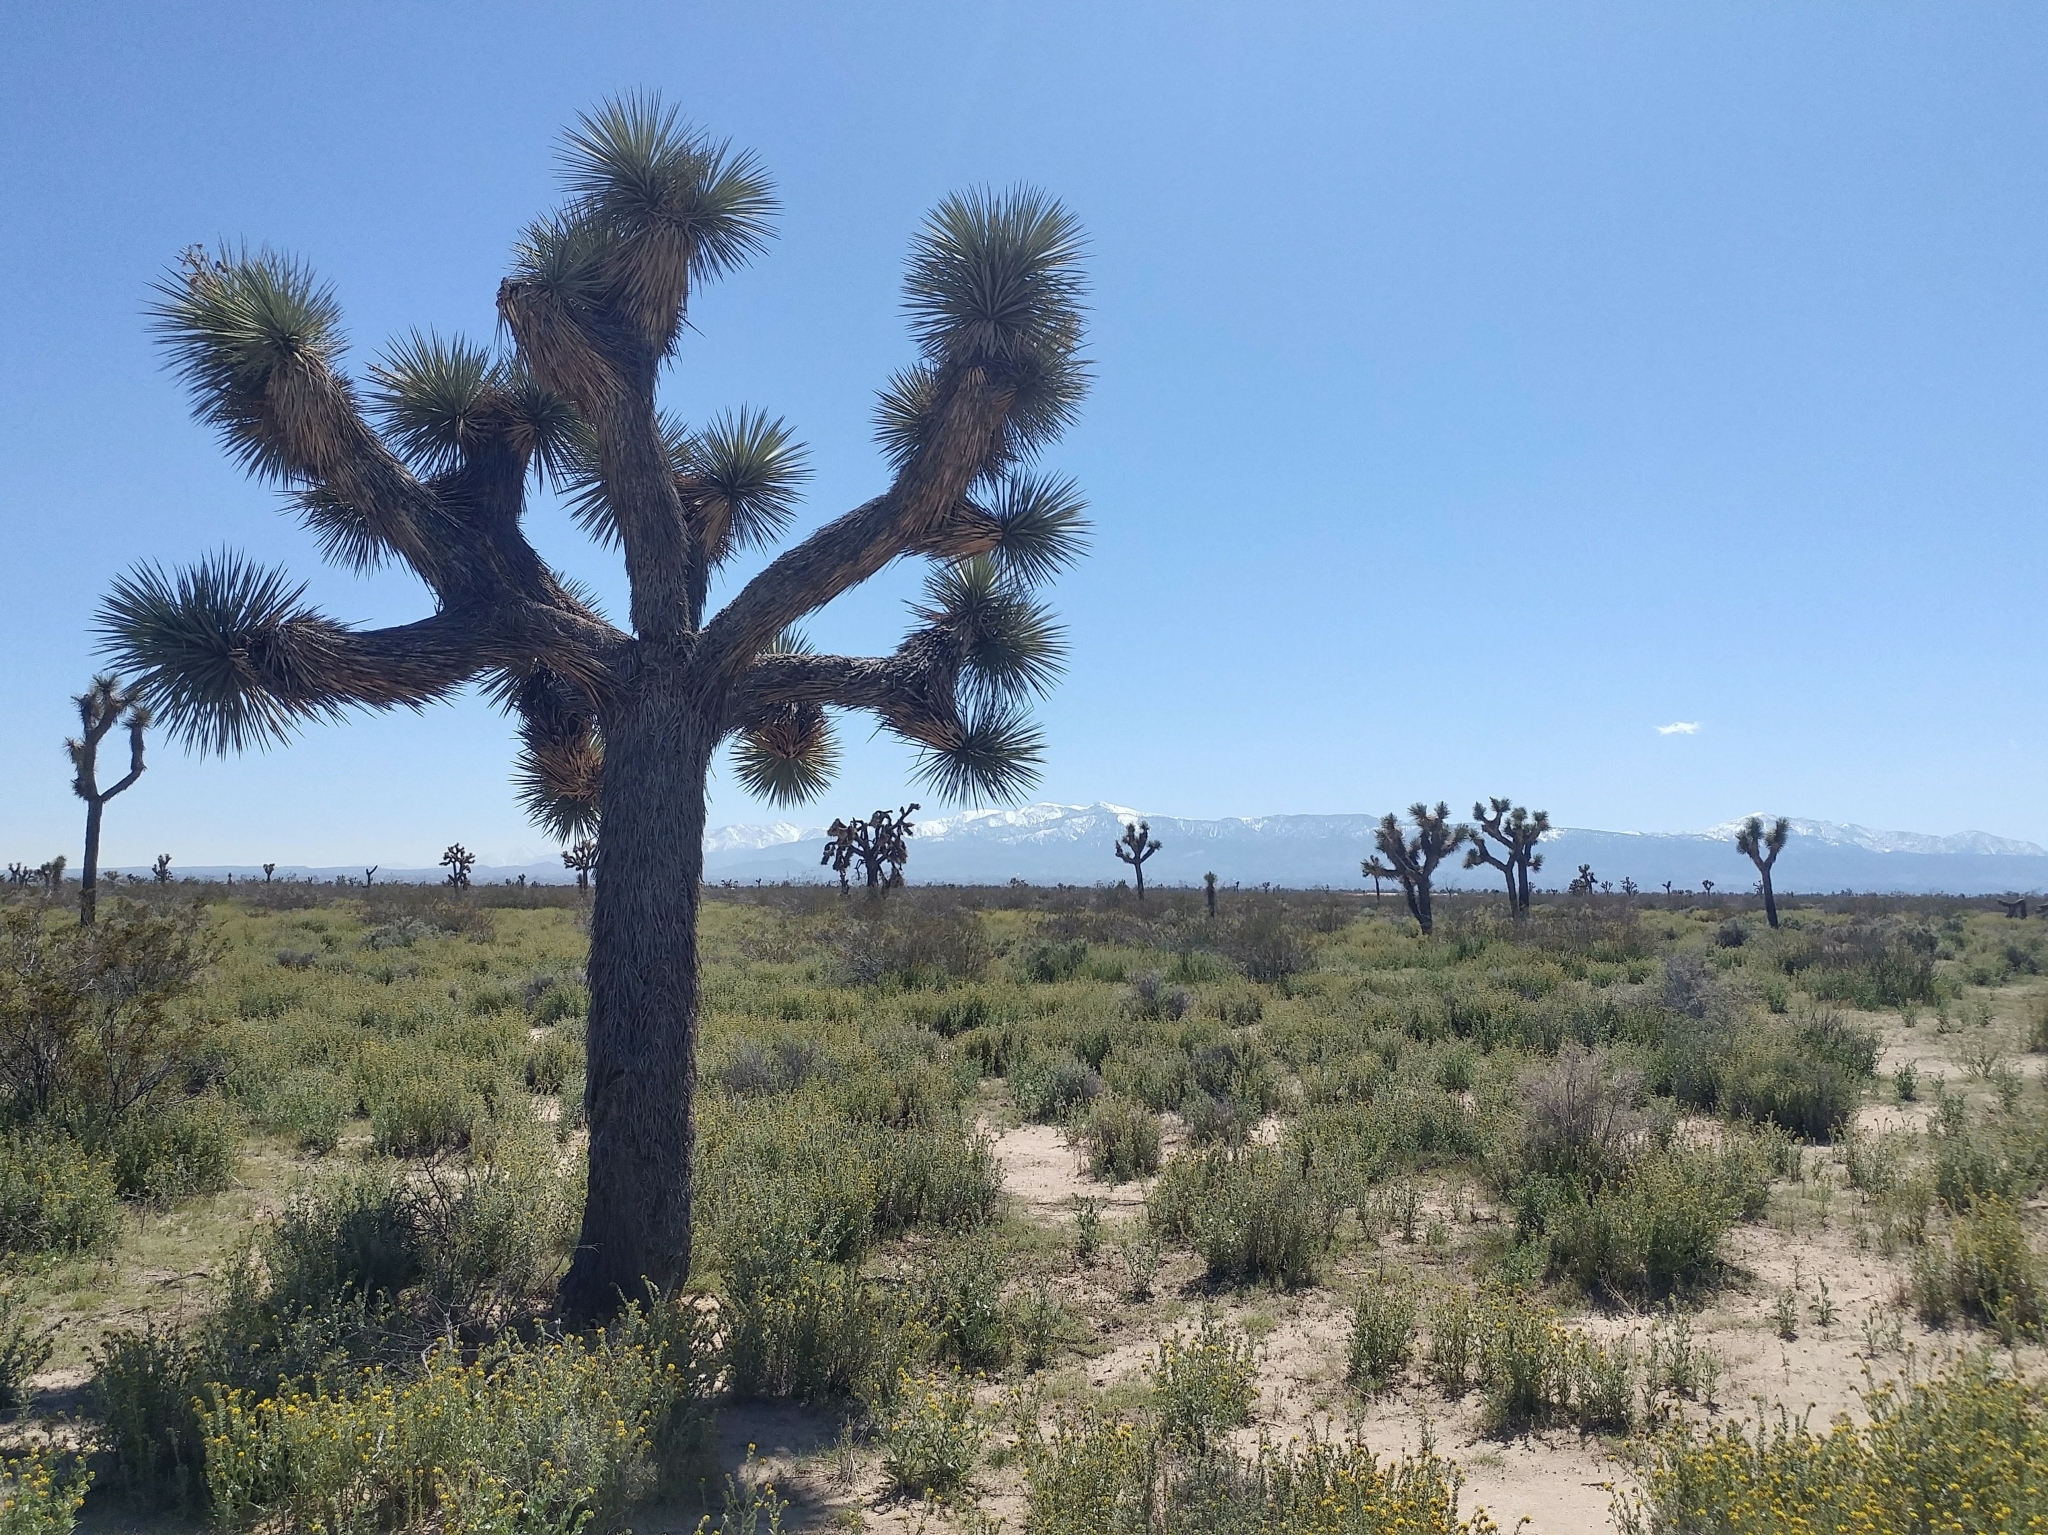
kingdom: Plantae
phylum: Tracheophyta
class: Liliopsida
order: Asparagales
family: Asparagaceae
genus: Yucca
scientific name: Yucca brevifolia
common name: Joshua tree
